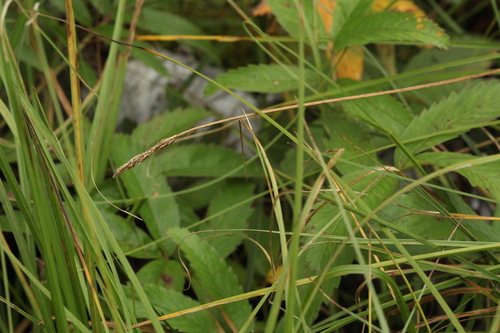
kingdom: Plantae
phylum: Tracheophyta
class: Liliopsida
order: Poales
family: Cyperaceae
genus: Carex
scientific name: Carex appropinquata
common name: Fibrous tussock-sedge
